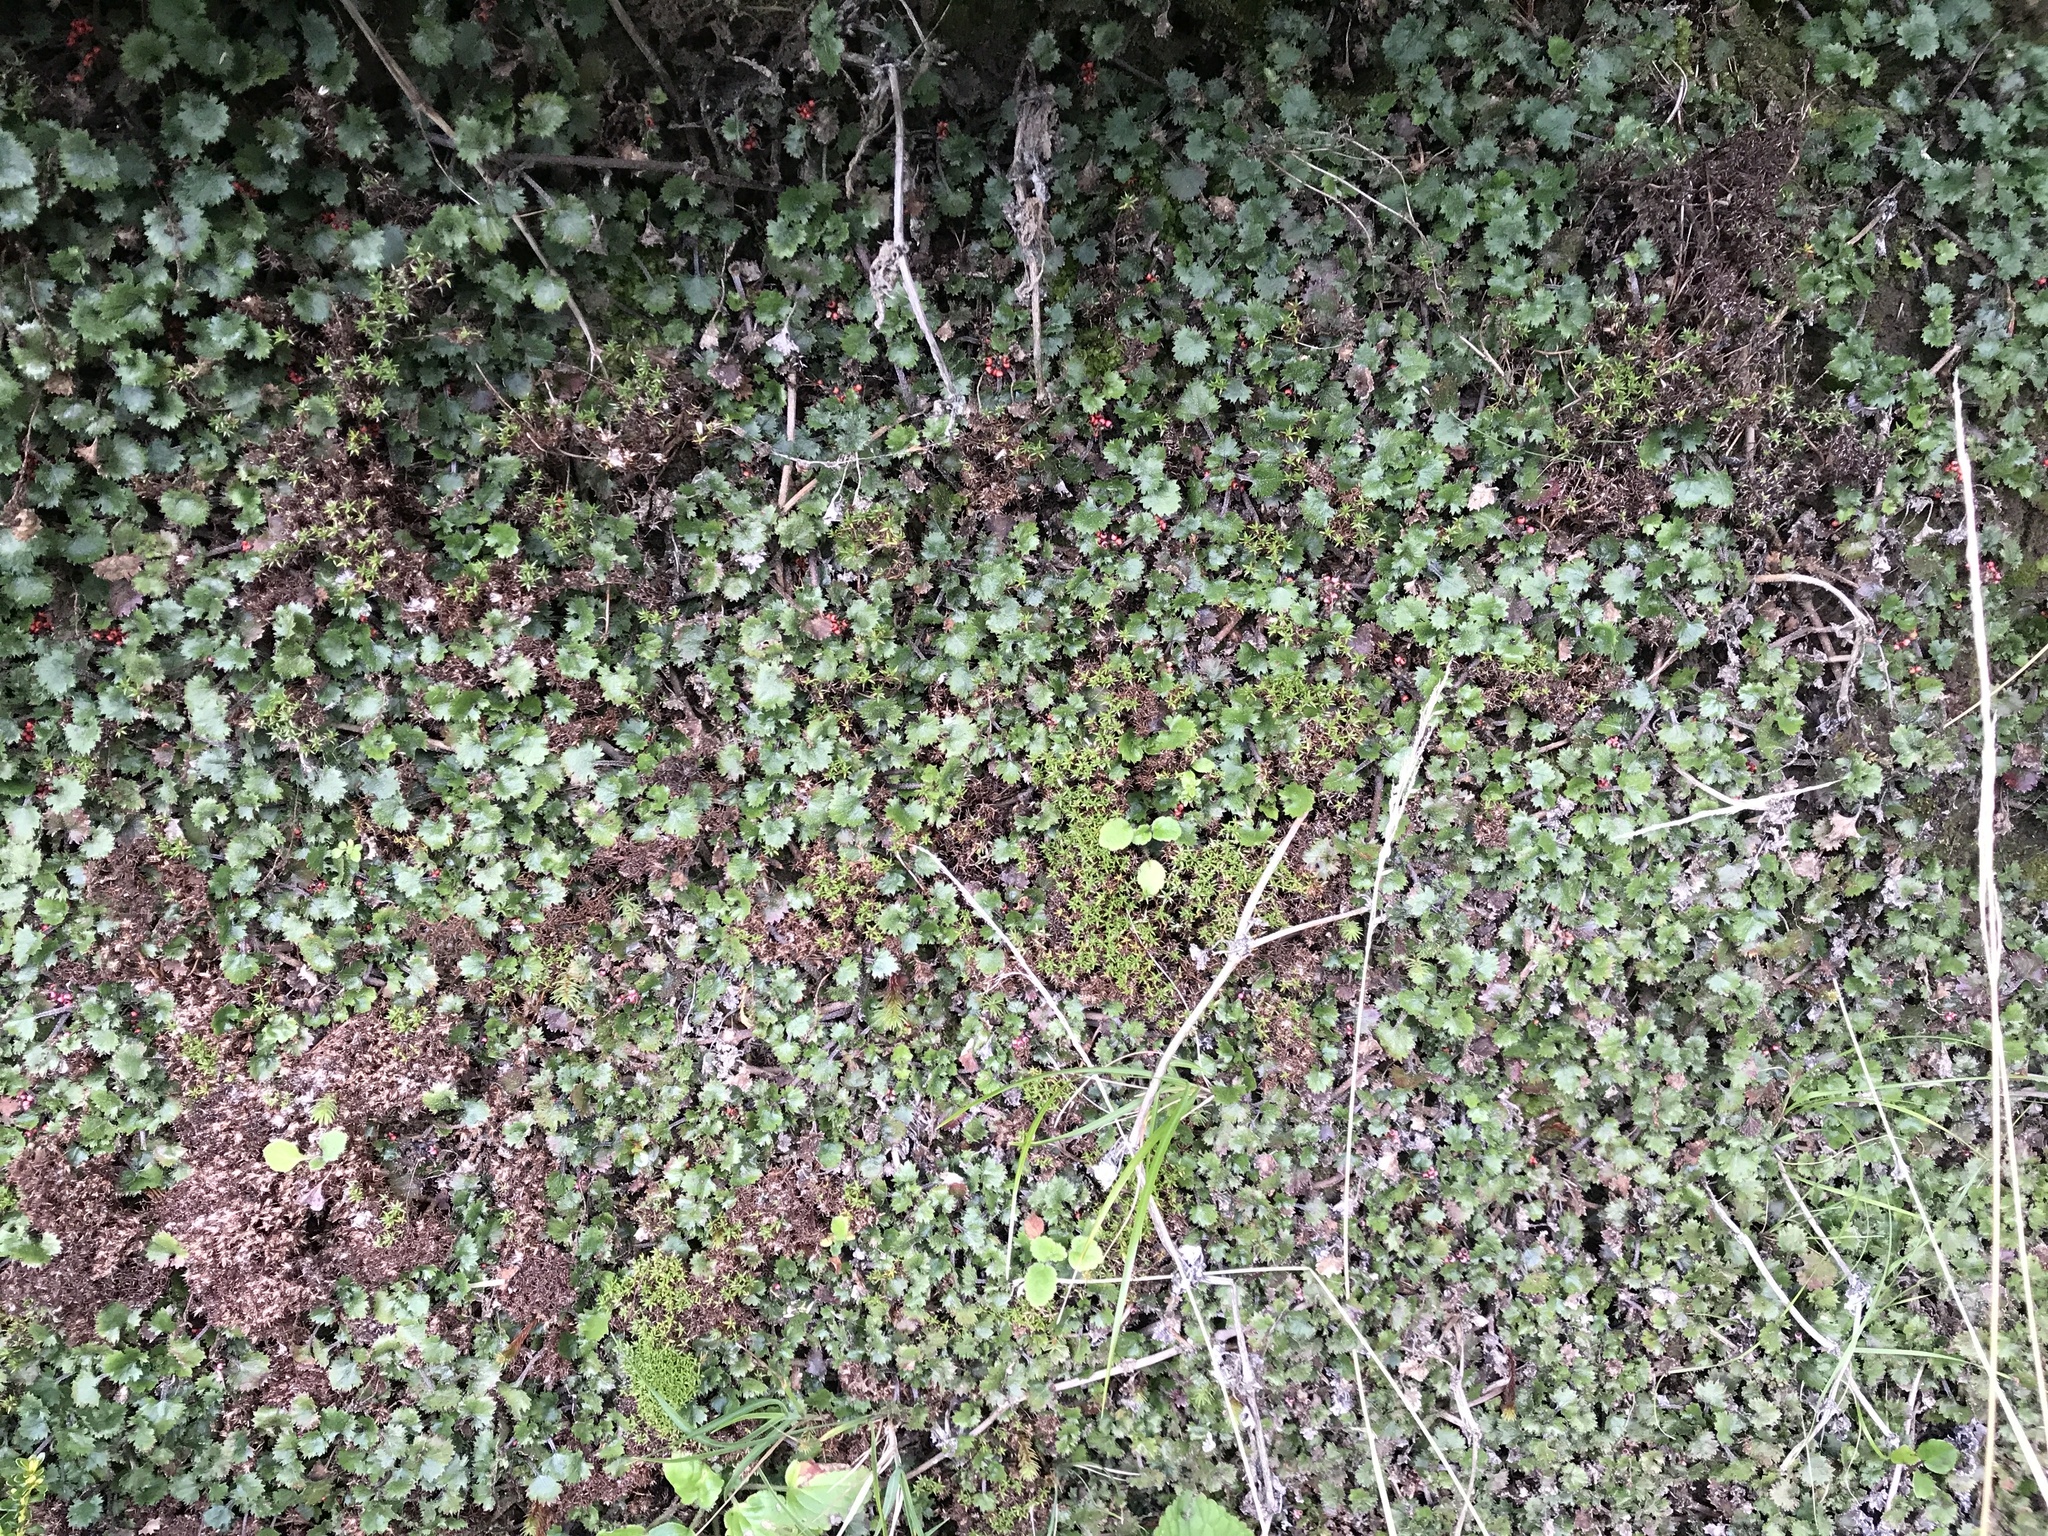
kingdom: Plantae
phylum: Tracheophyta
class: Magnoliopsida
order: Gunnerales
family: Gunneraceae
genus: Gunnera
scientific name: Gunnera monoica
